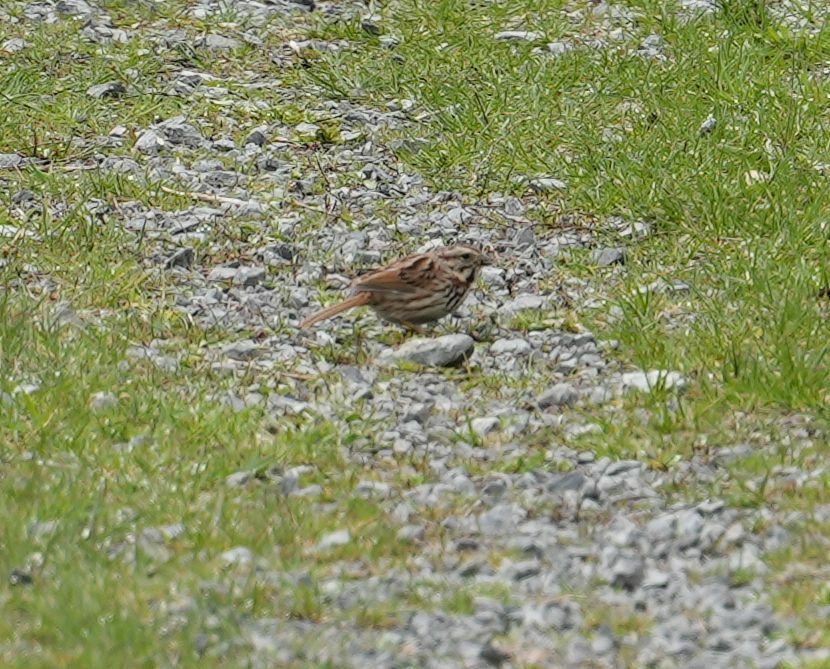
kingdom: Animalia
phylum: Chordata
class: Aves
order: Passeriformes
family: Passerellidae
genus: Melospiza
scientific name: Melospiza melodia
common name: Song sparrow
